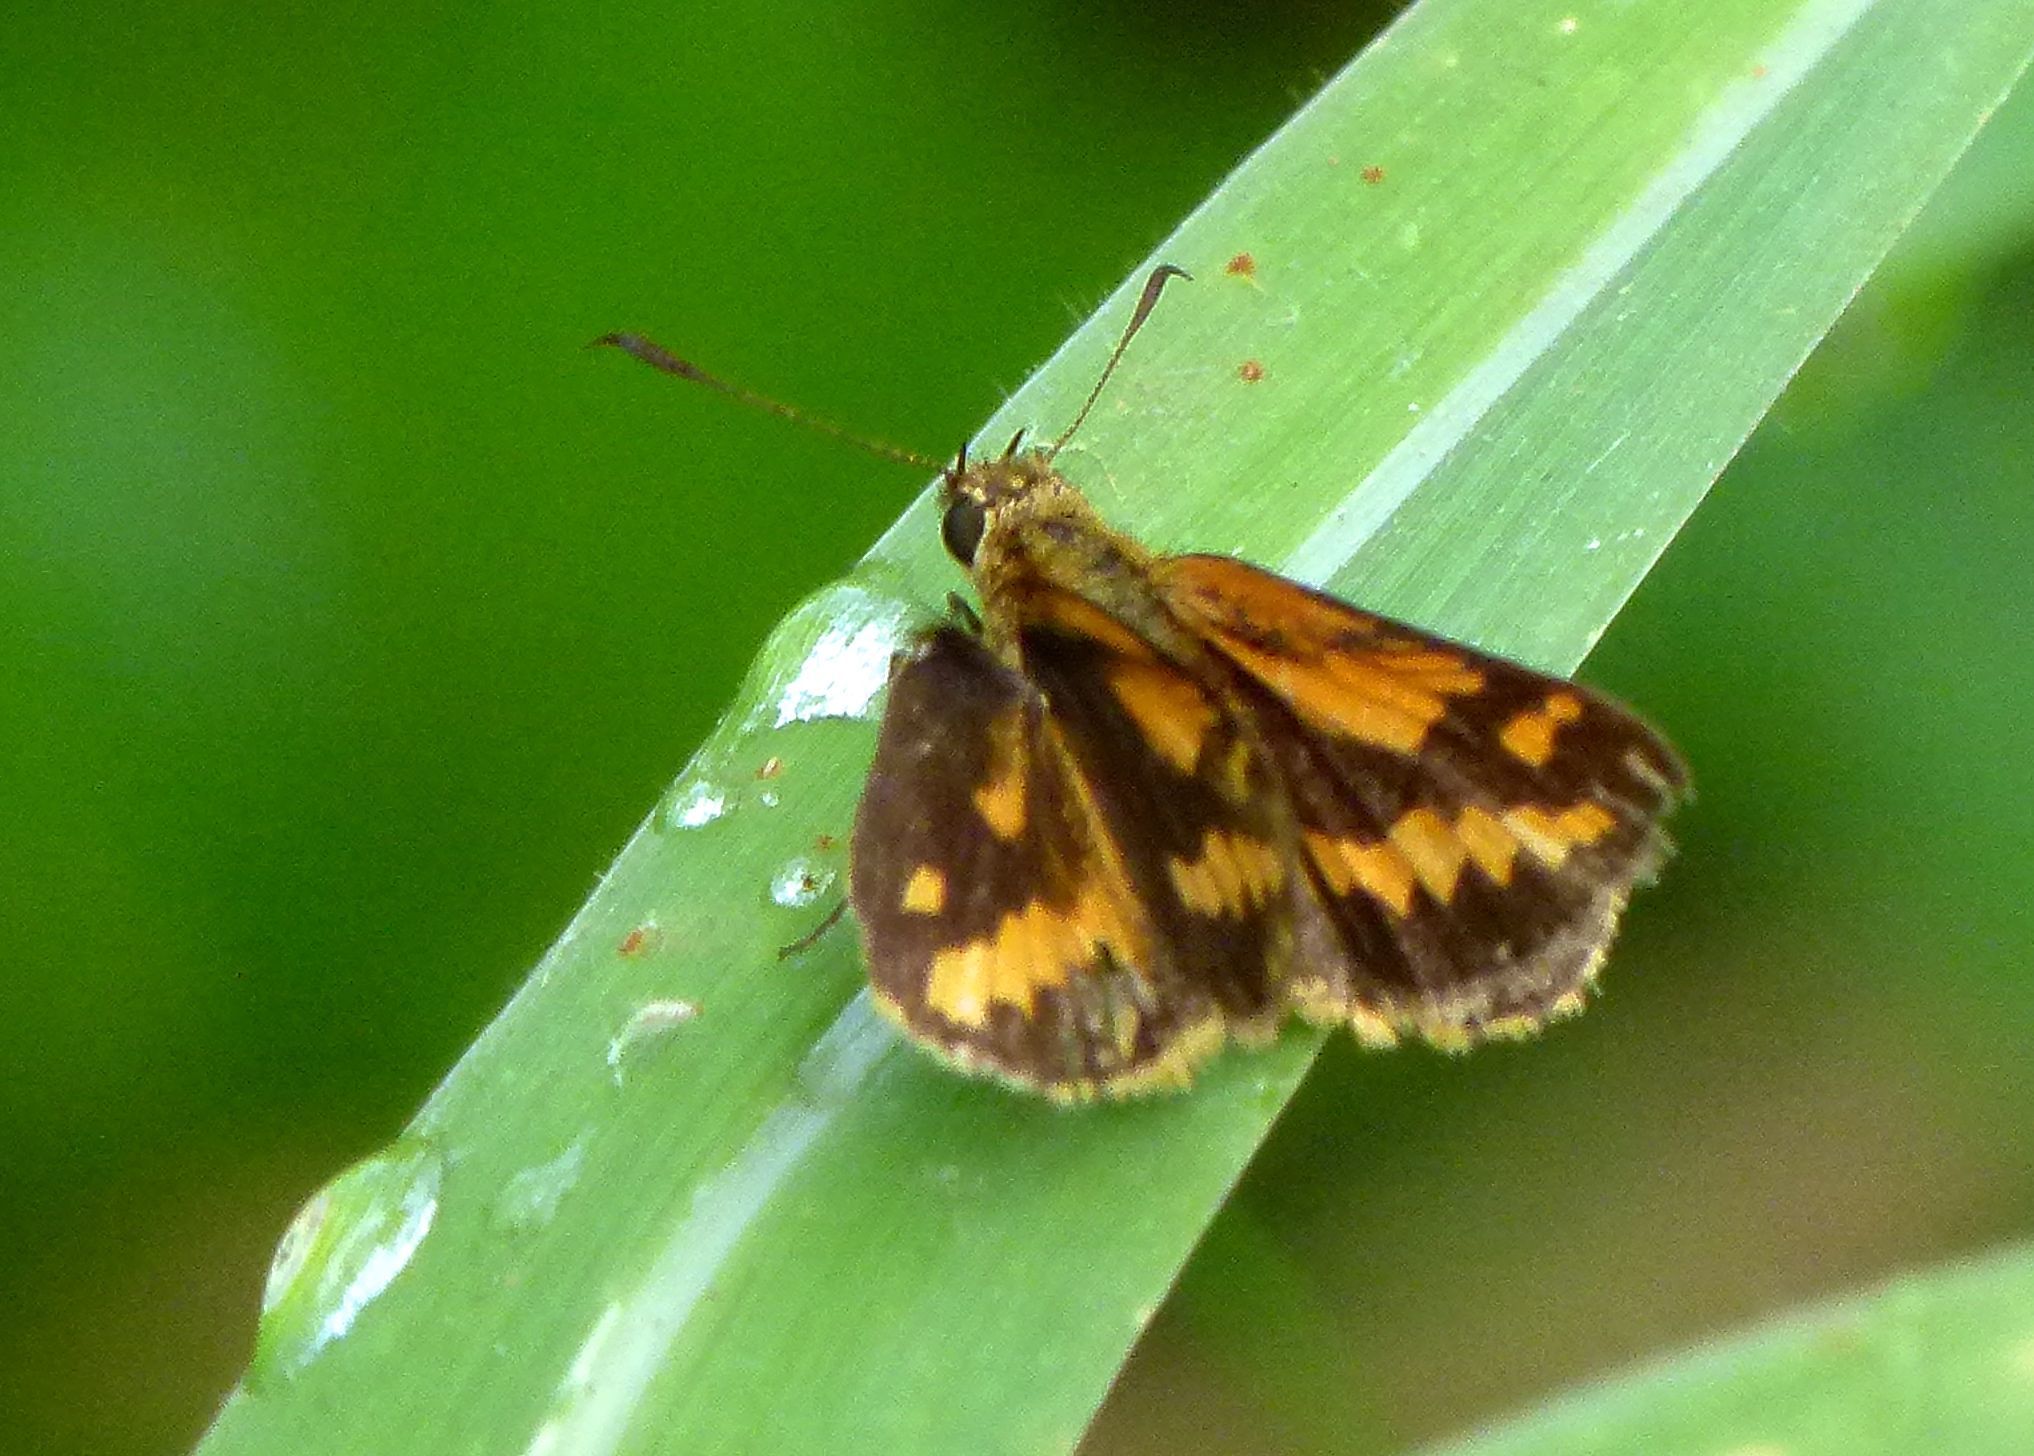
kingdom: Animalia
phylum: Arthropoda
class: Insecta
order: Lepidoptera
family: Hesperiidae
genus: Suniana
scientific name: Suniana sunias
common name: Wide-brand grass-dart
